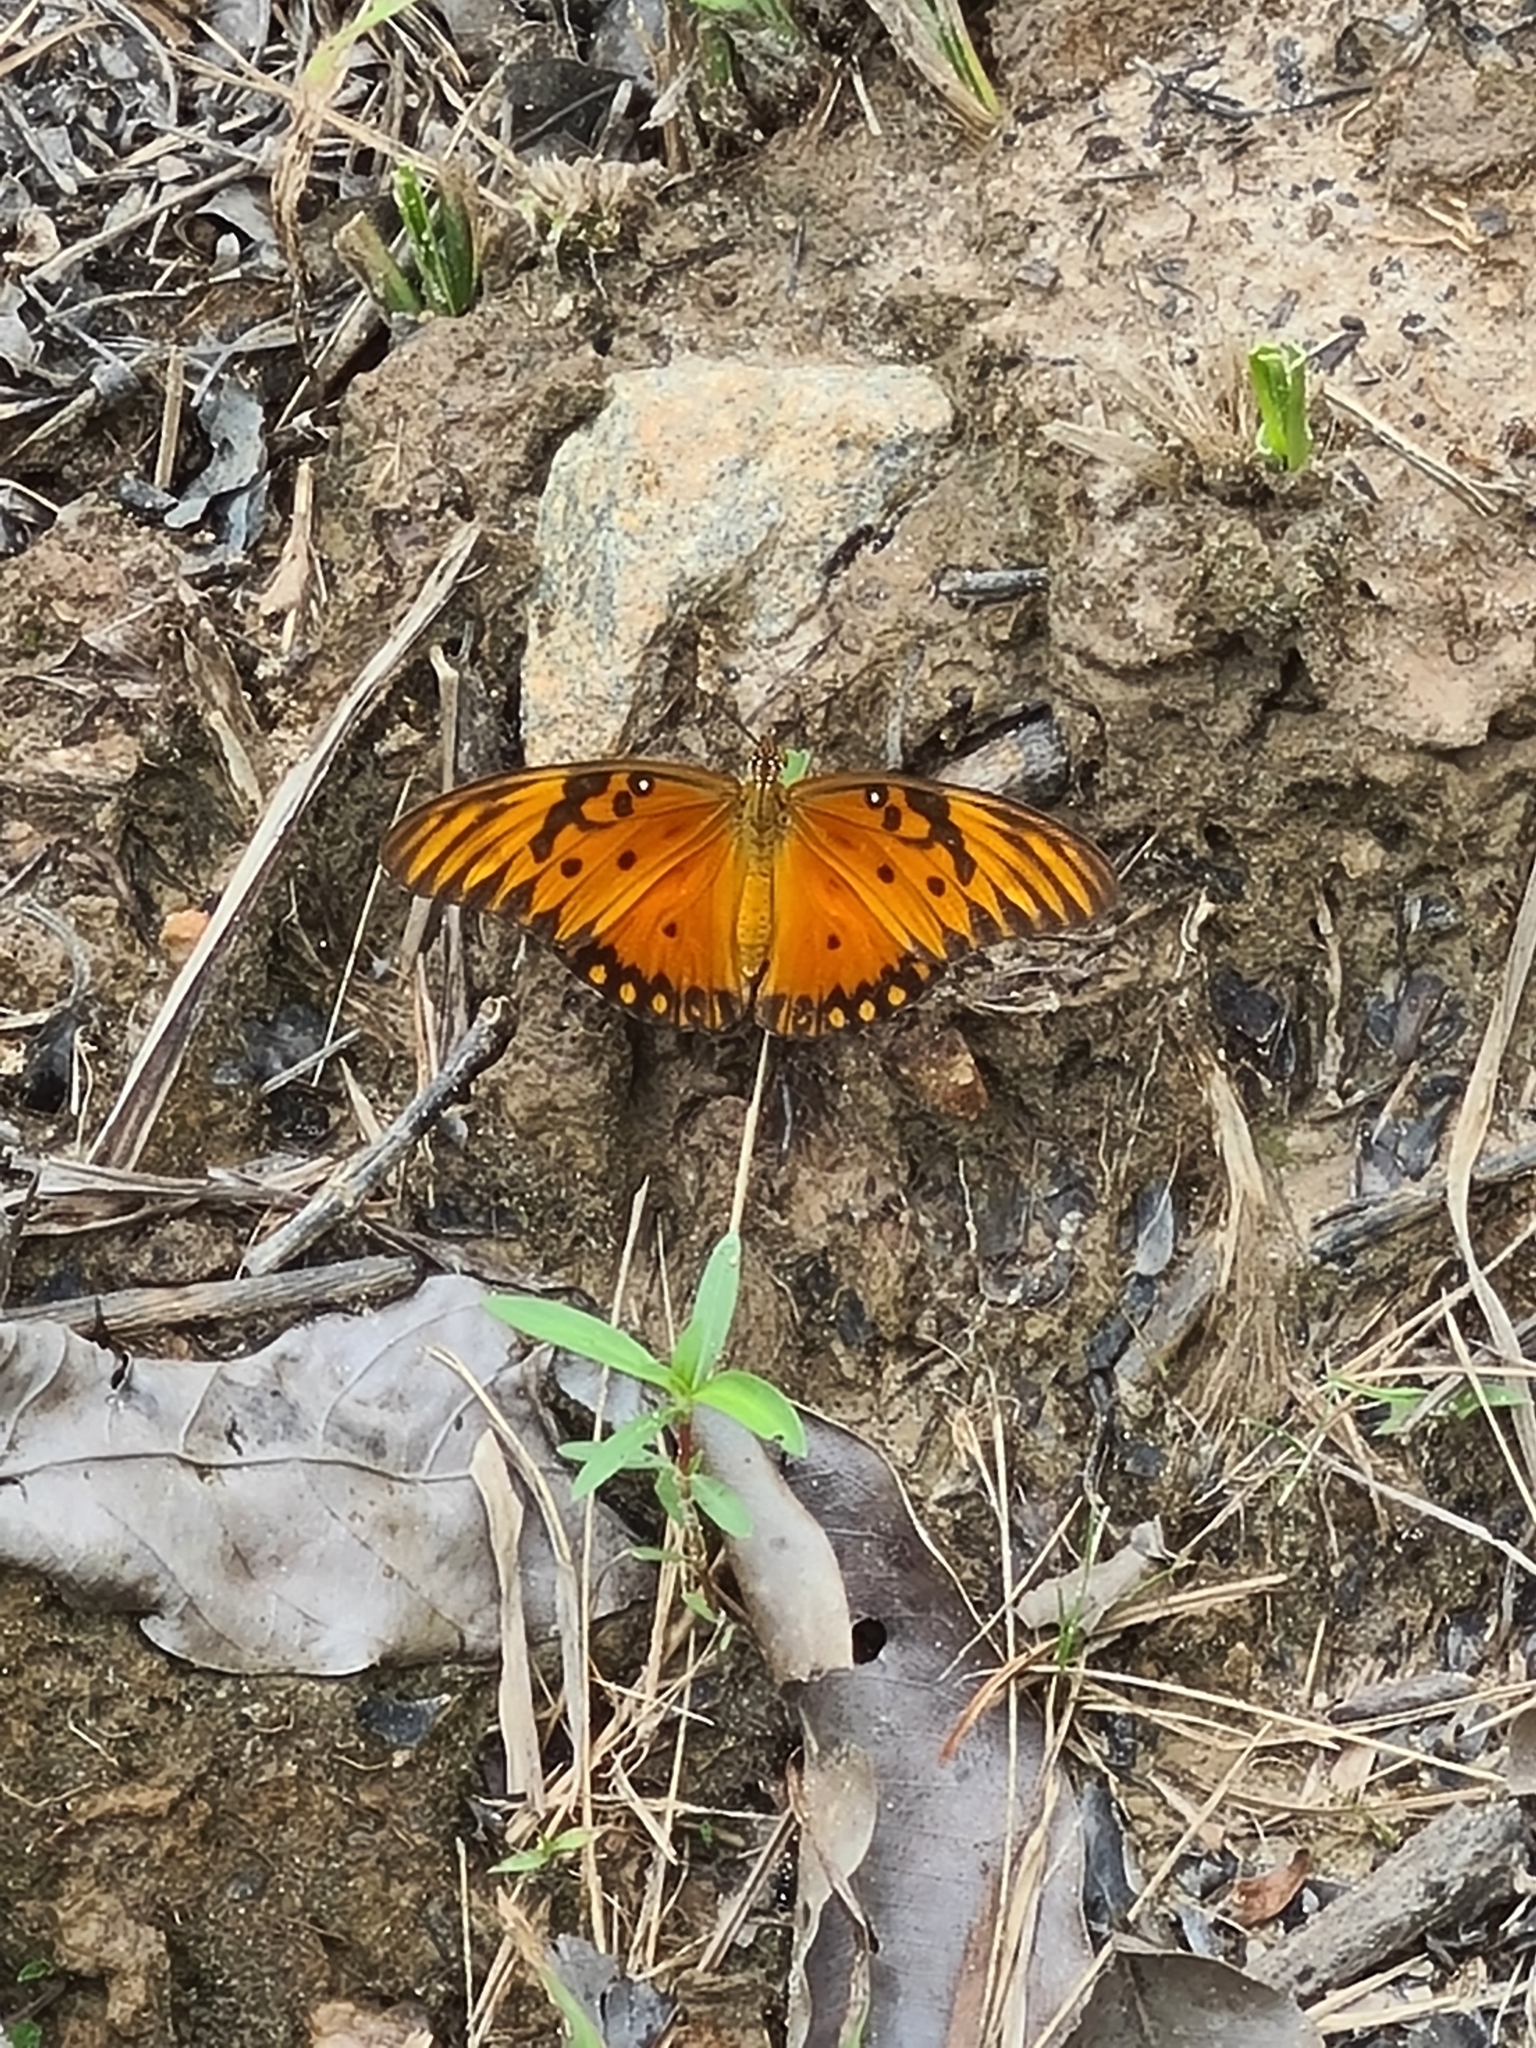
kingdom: Animalia
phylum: Arthropoda
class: Insecta
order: Lepidoptera
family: Nymphalidae
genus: Dione
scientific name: Dione vanillae
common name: Gulf fritillary
